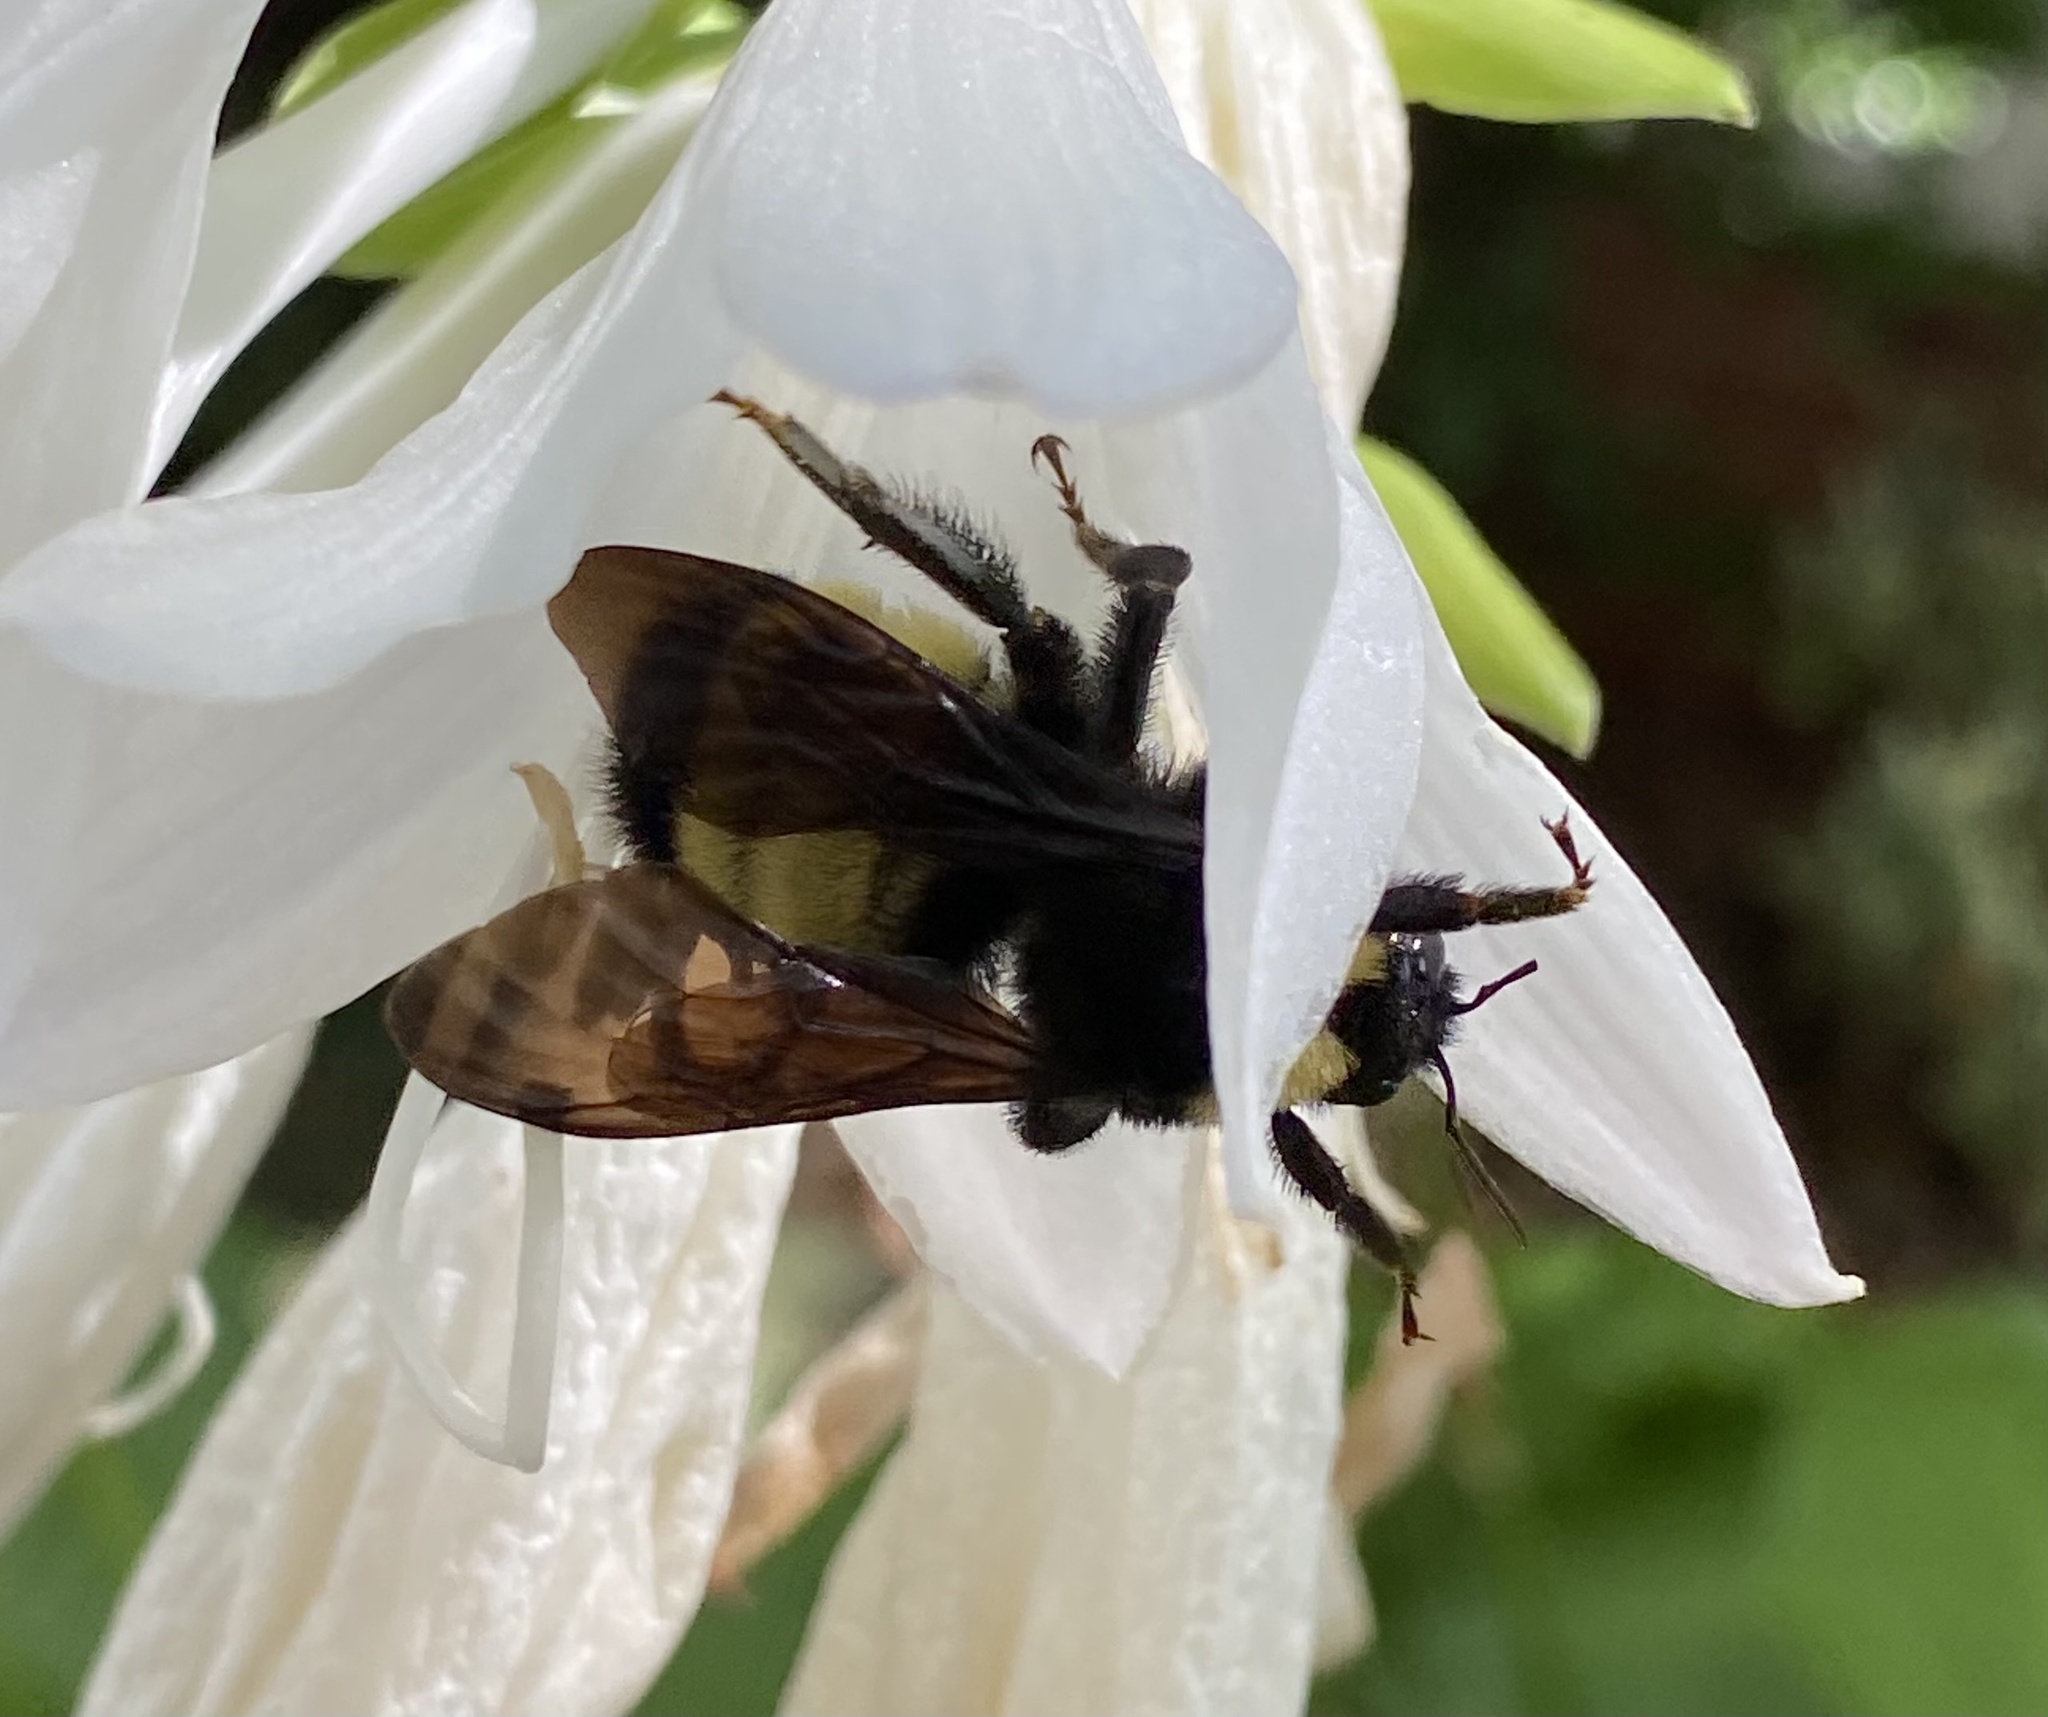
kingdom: Animalia
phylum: Arthropoda
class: Insecta
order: Hymenoptera
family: Apidae
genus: Bombus
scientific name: Bombus pensylvanicus
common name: Bumble bee
